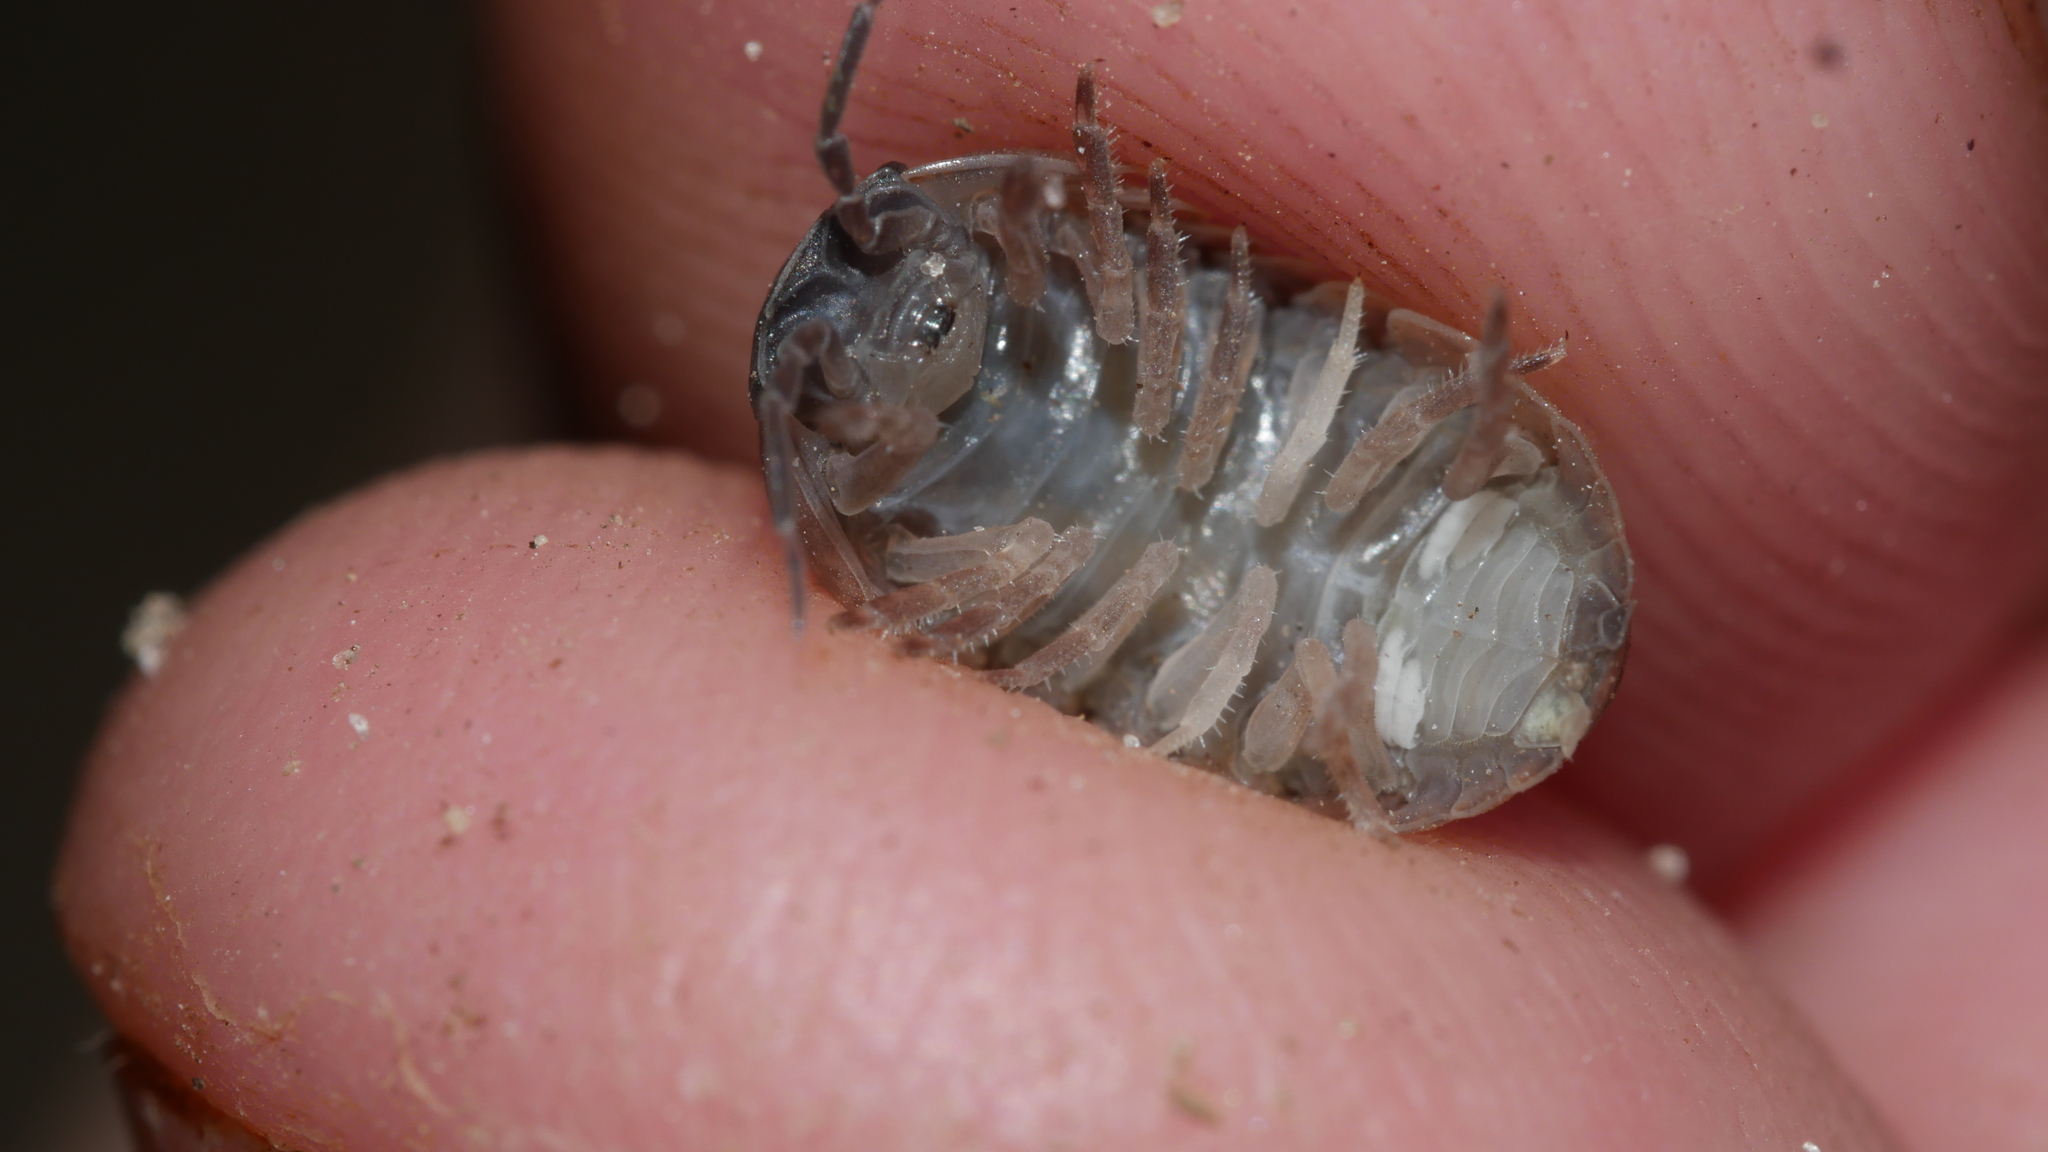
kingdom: Animalia
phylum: Arthropoda
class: Malacostraca
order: Isopoda
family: Armadillidiidae
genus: Armadillidium
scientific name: Armadillidium vulgare
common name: Common pill woodlouse
